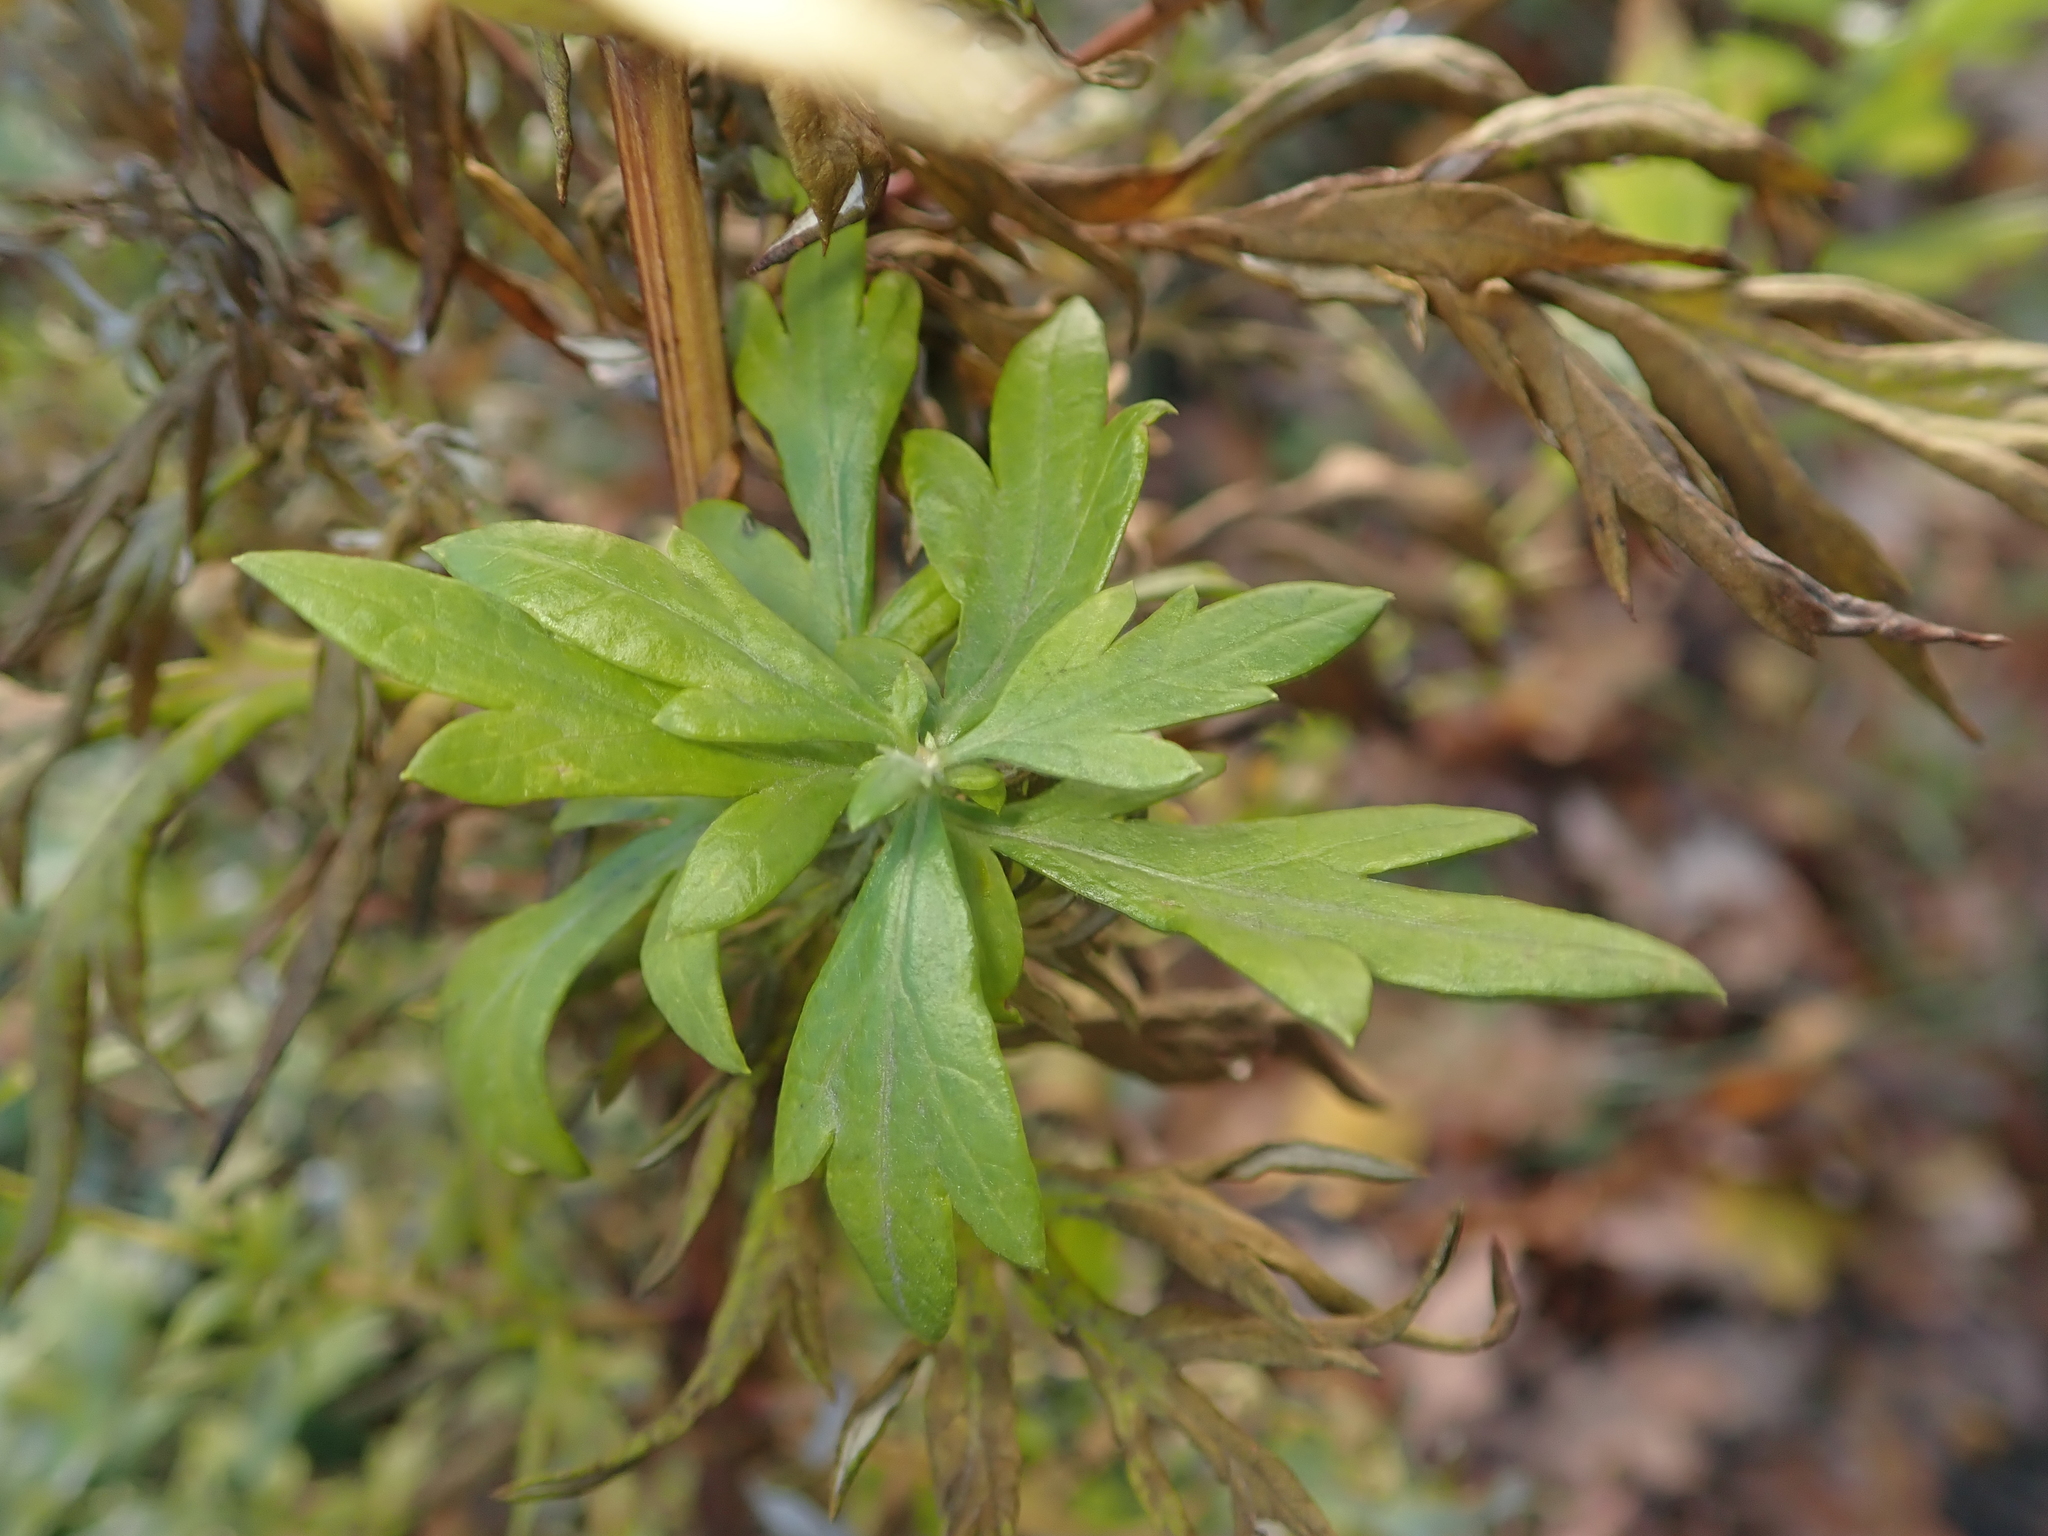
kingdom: Plantae
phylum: Tracheophyta
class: Magnoliopsida
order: Asterales
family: Asteraceae
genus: Artemisia
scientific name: Artemisia vulgaris
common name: Mugwort
